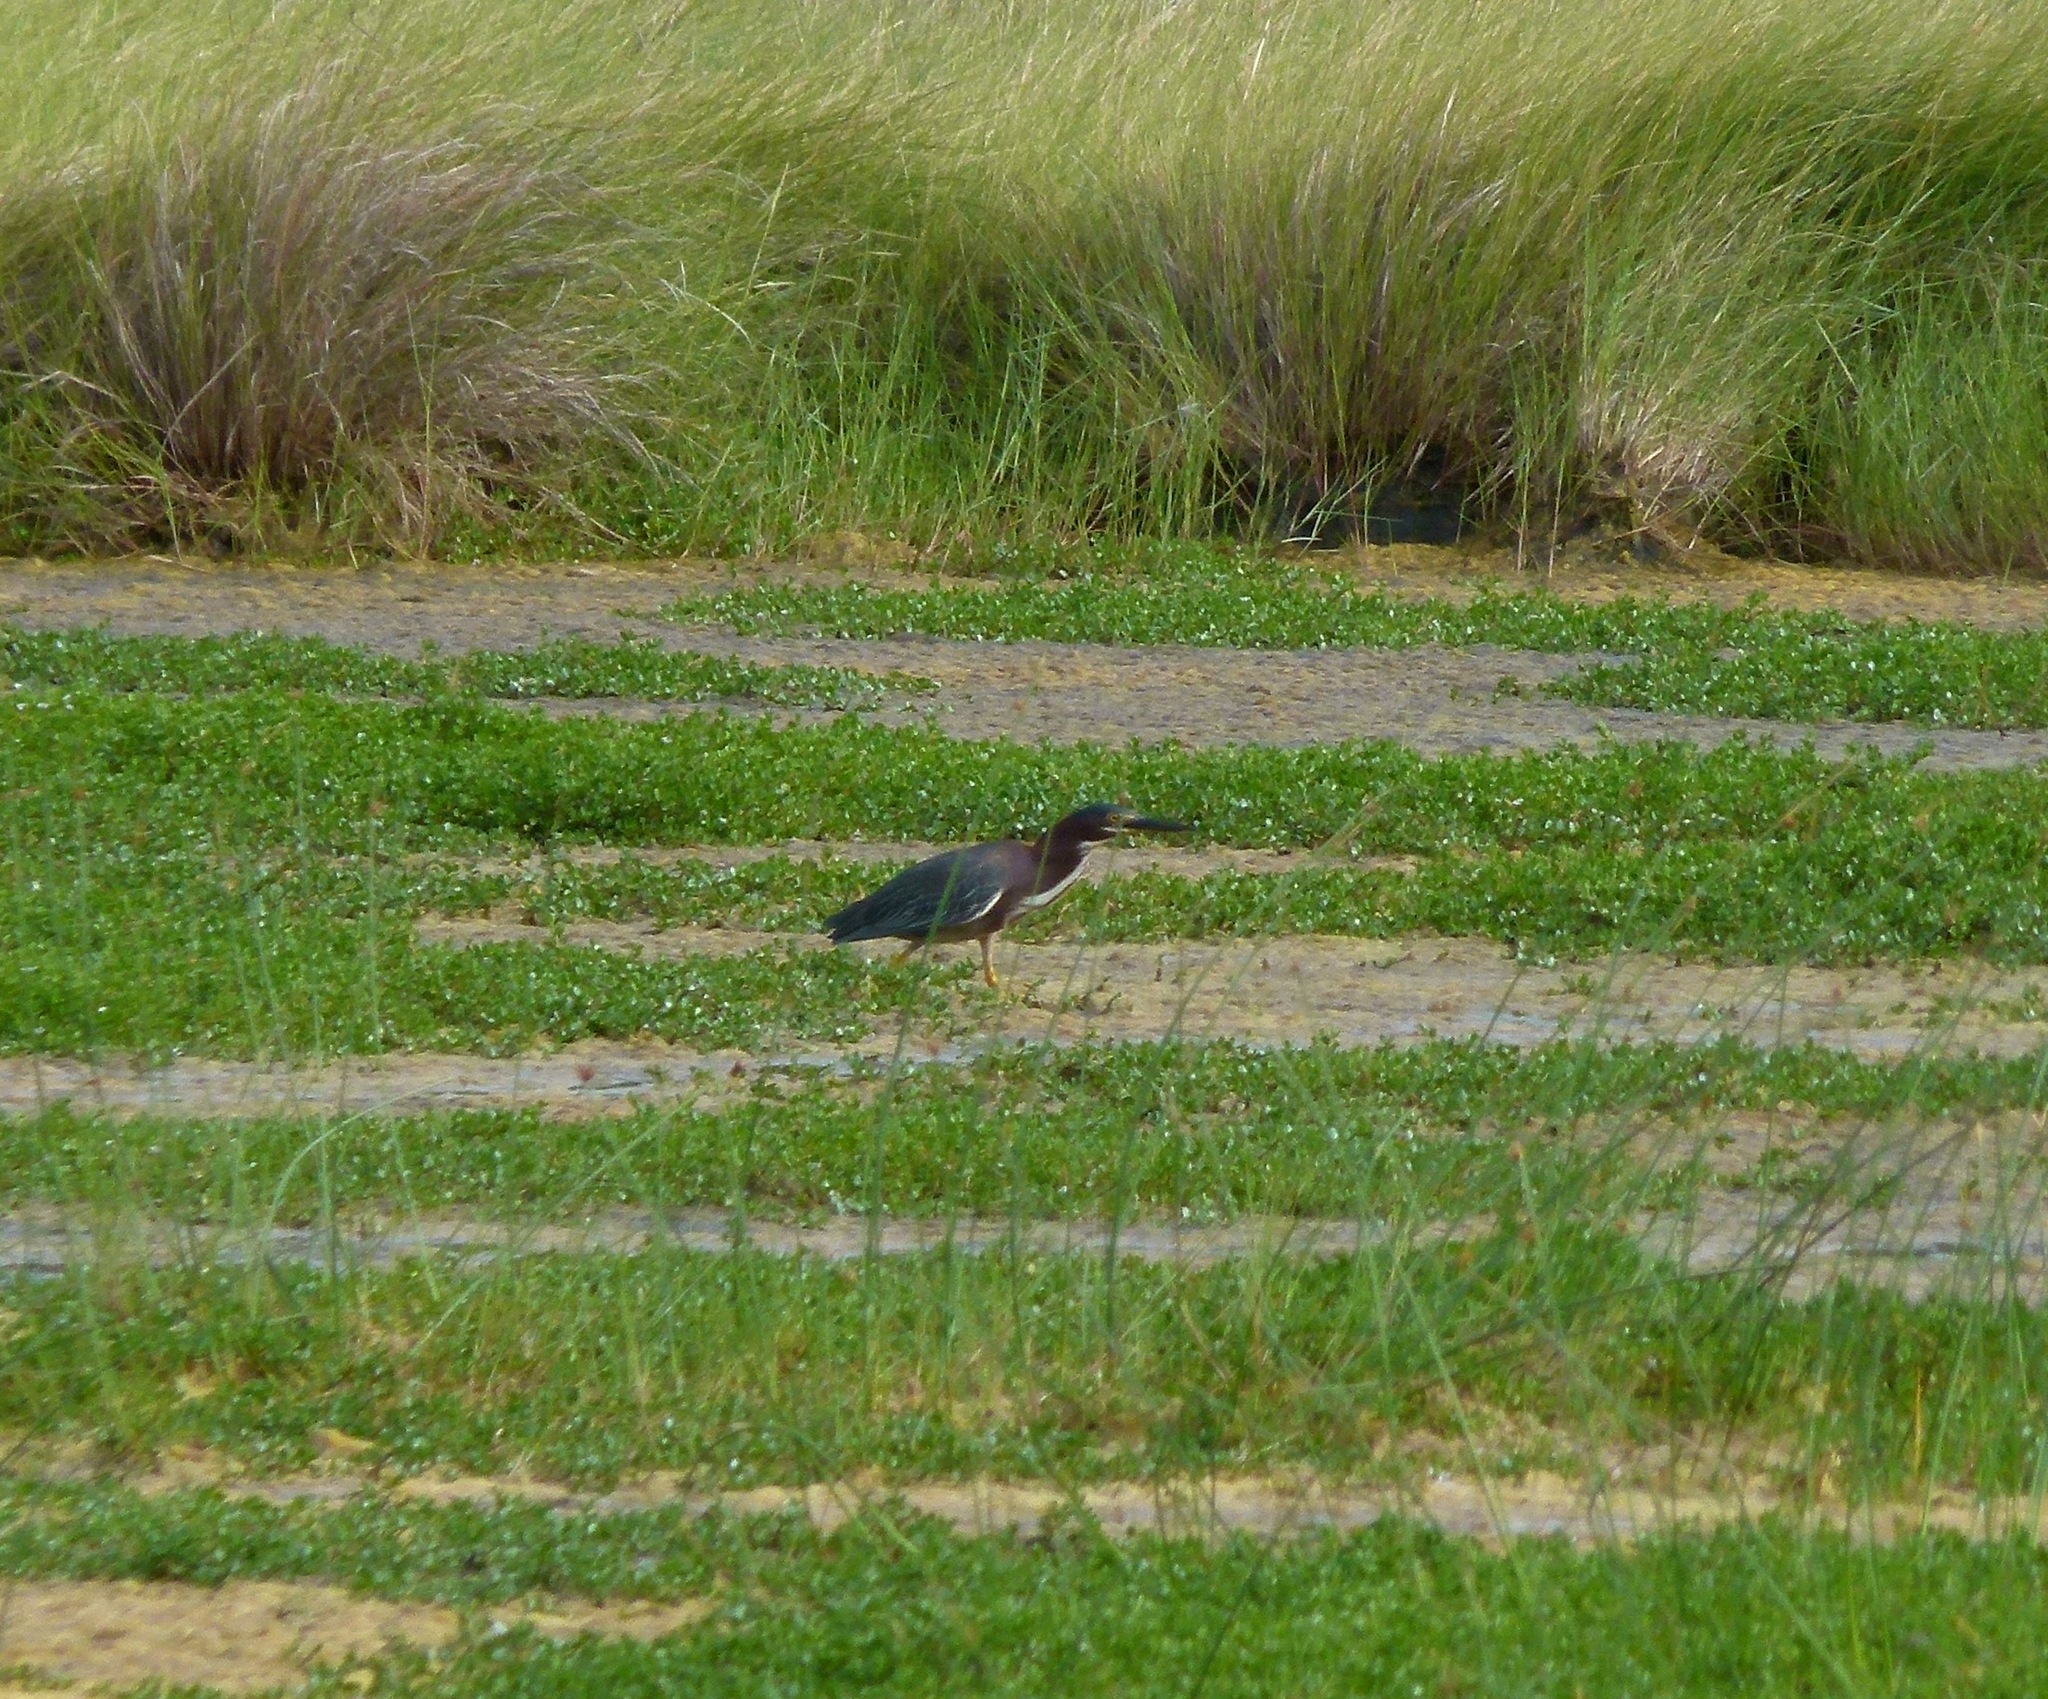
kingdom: Animalia
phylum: Chordata
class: Aves
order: Pelecaniformes
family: Ardeidae
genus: Butorides
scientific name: Butorides virescens
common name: Green heron
